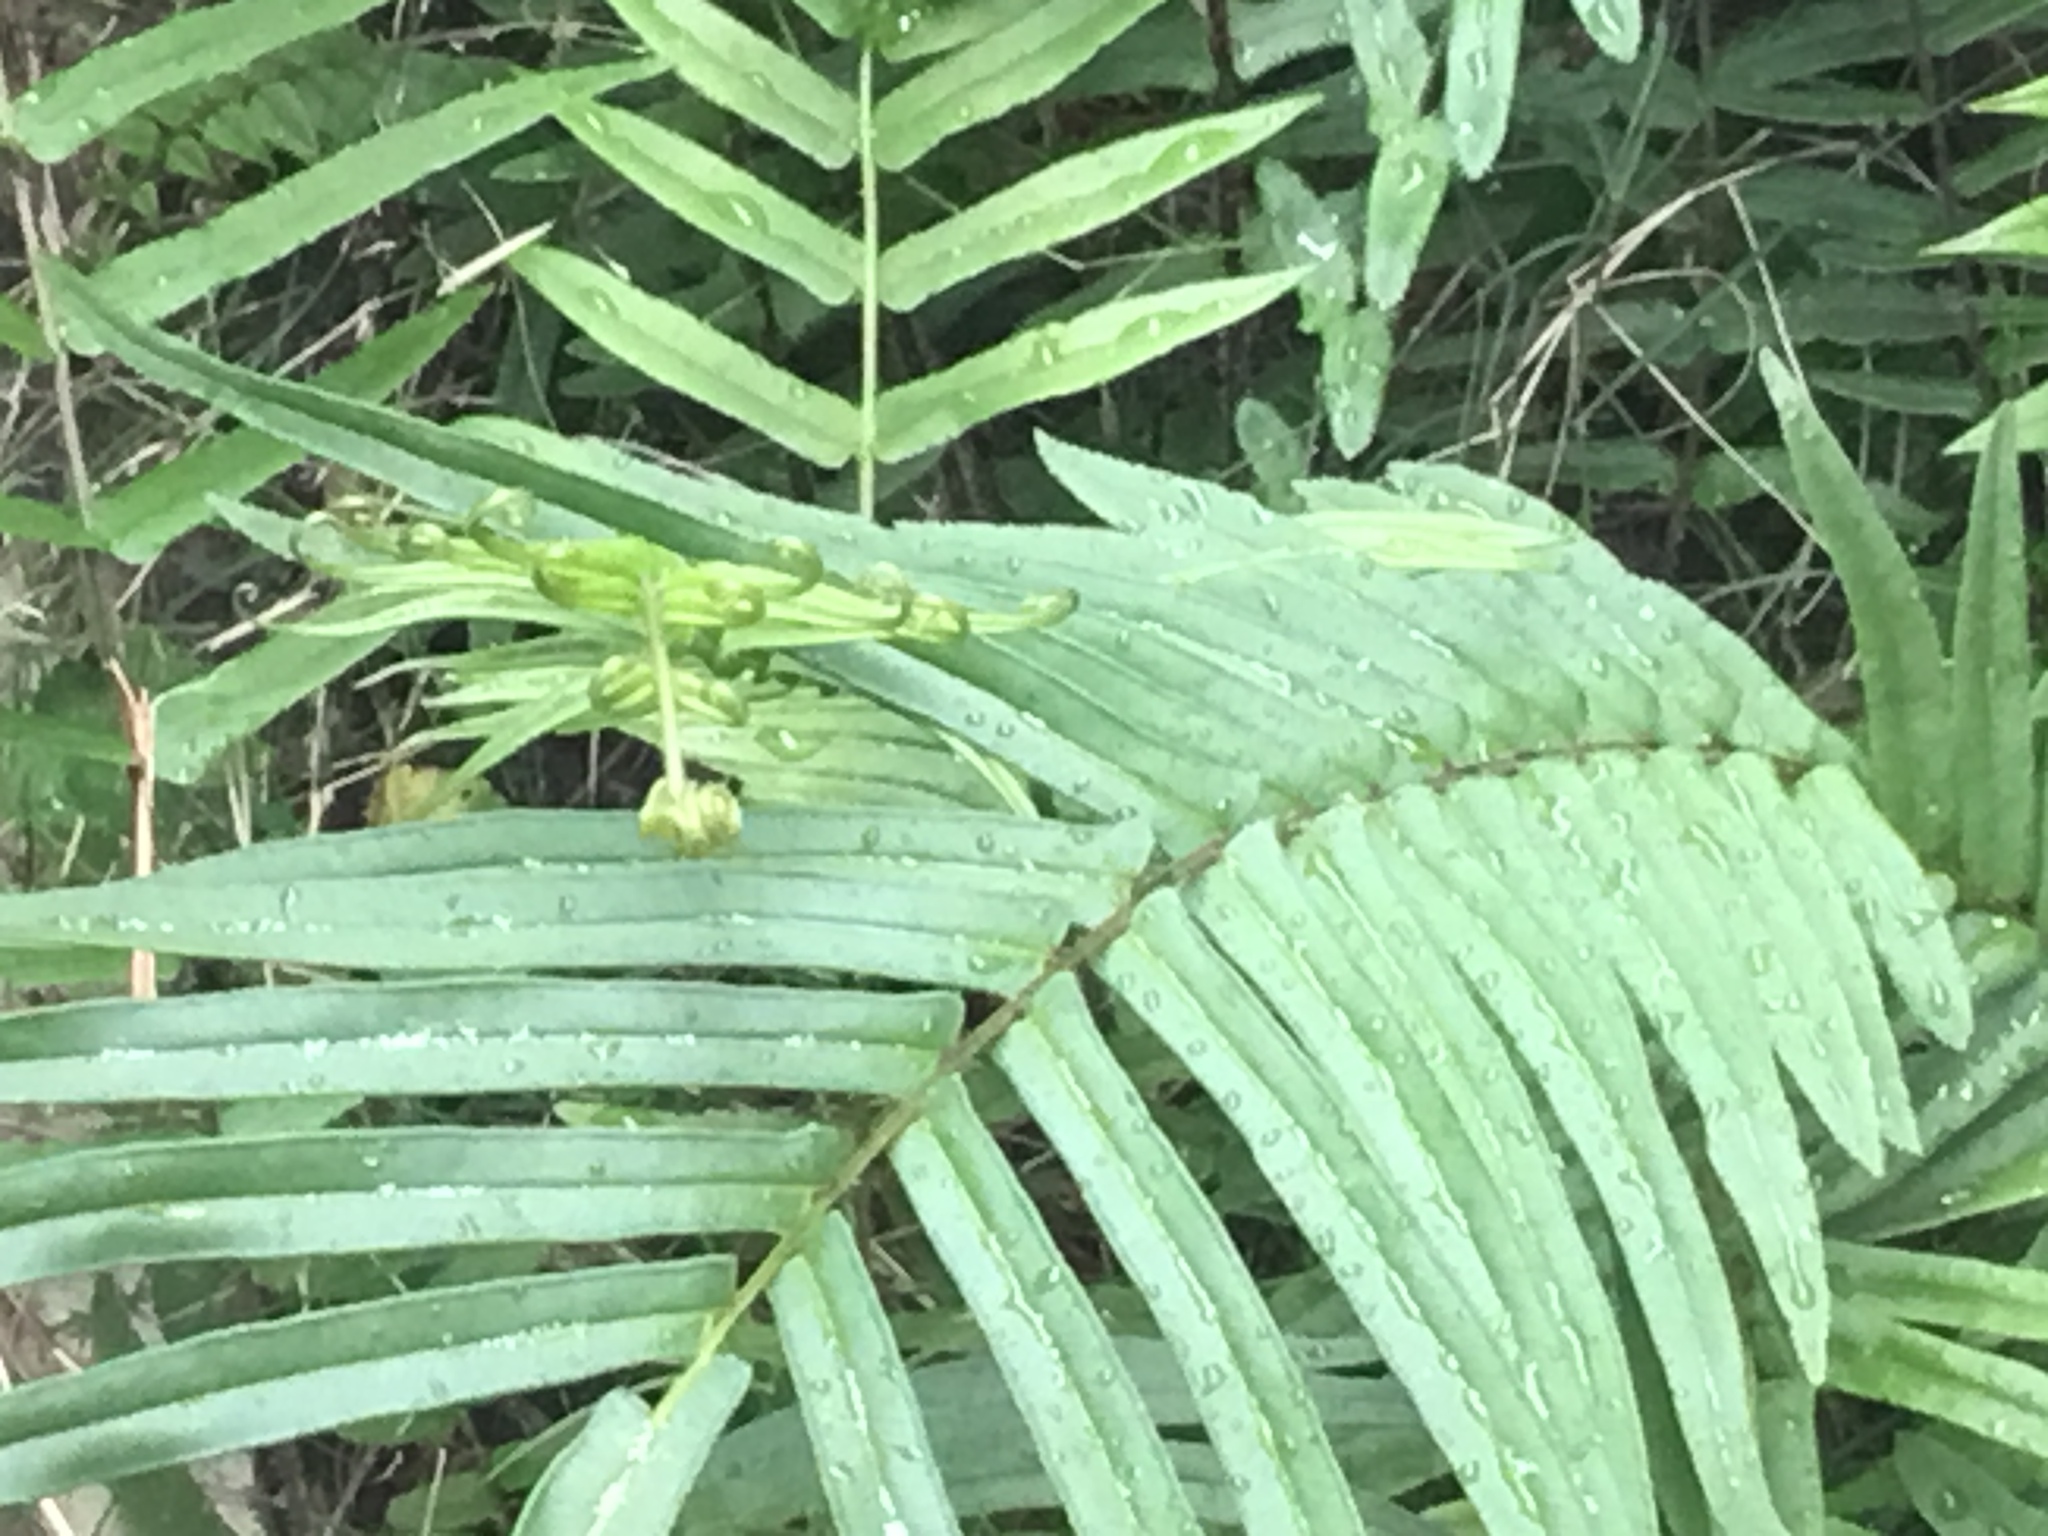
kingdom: Plantae
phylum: Tracheophyta
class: Polypodiopsida
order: Polypodiales
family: Pteridaceae
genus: Pteris
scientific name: Pteris vittata
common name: Ladder brake
